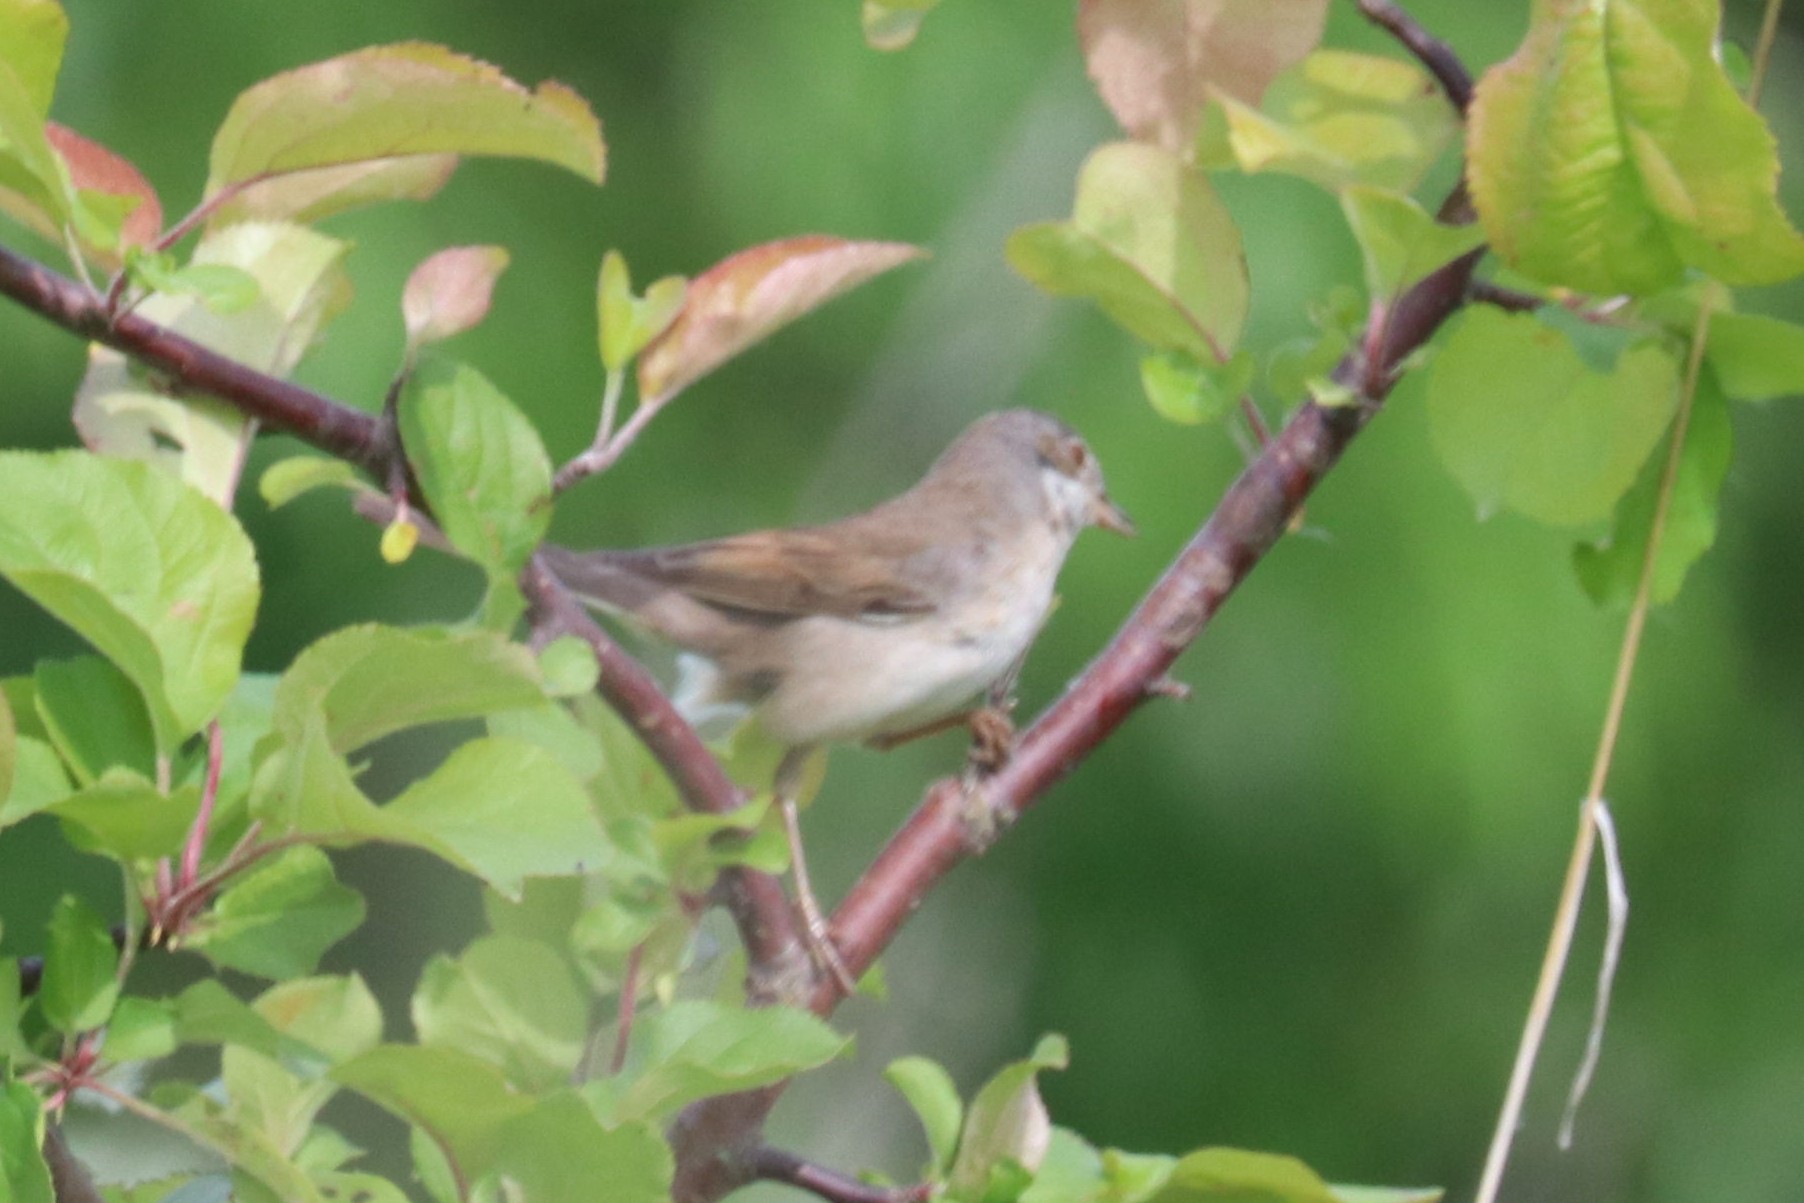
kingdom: Animalia
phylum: Chordata
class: Aves
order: Passeriformes
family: Sylviidae
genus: Sylvia
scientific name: Sylvia communis
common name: Common whitethroat
